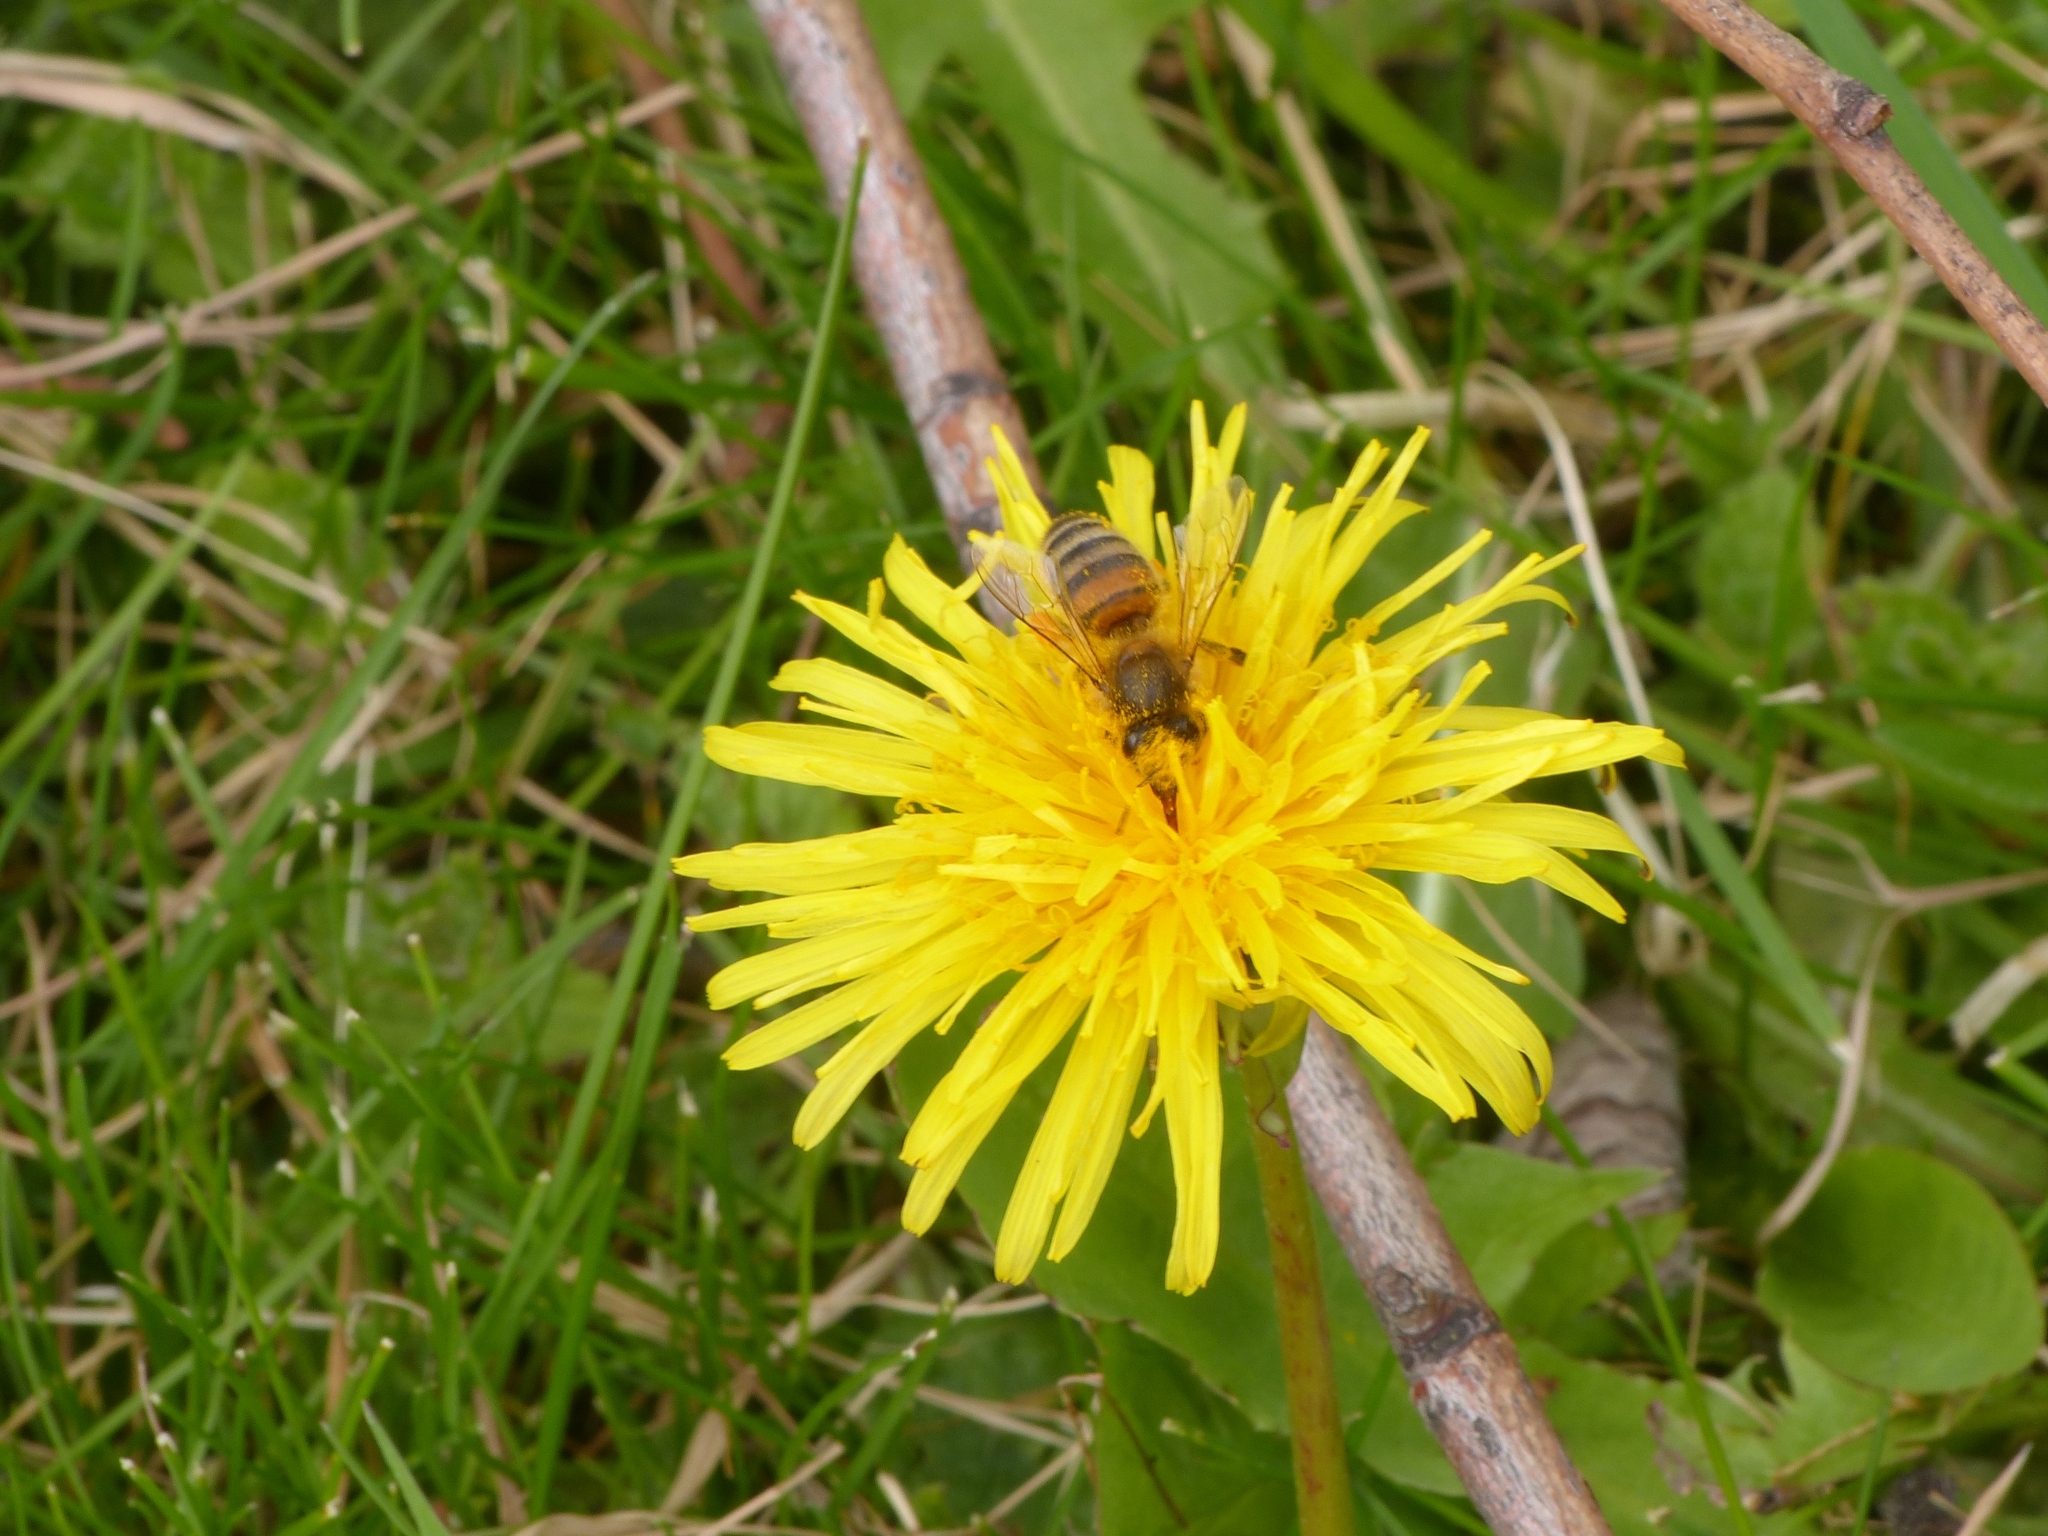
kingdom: Animalia
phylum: Arthropoda
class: Insecta
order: Hymenoptera
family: Apidae
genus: Apis
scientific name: Apis mellifera
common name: Honey bee
